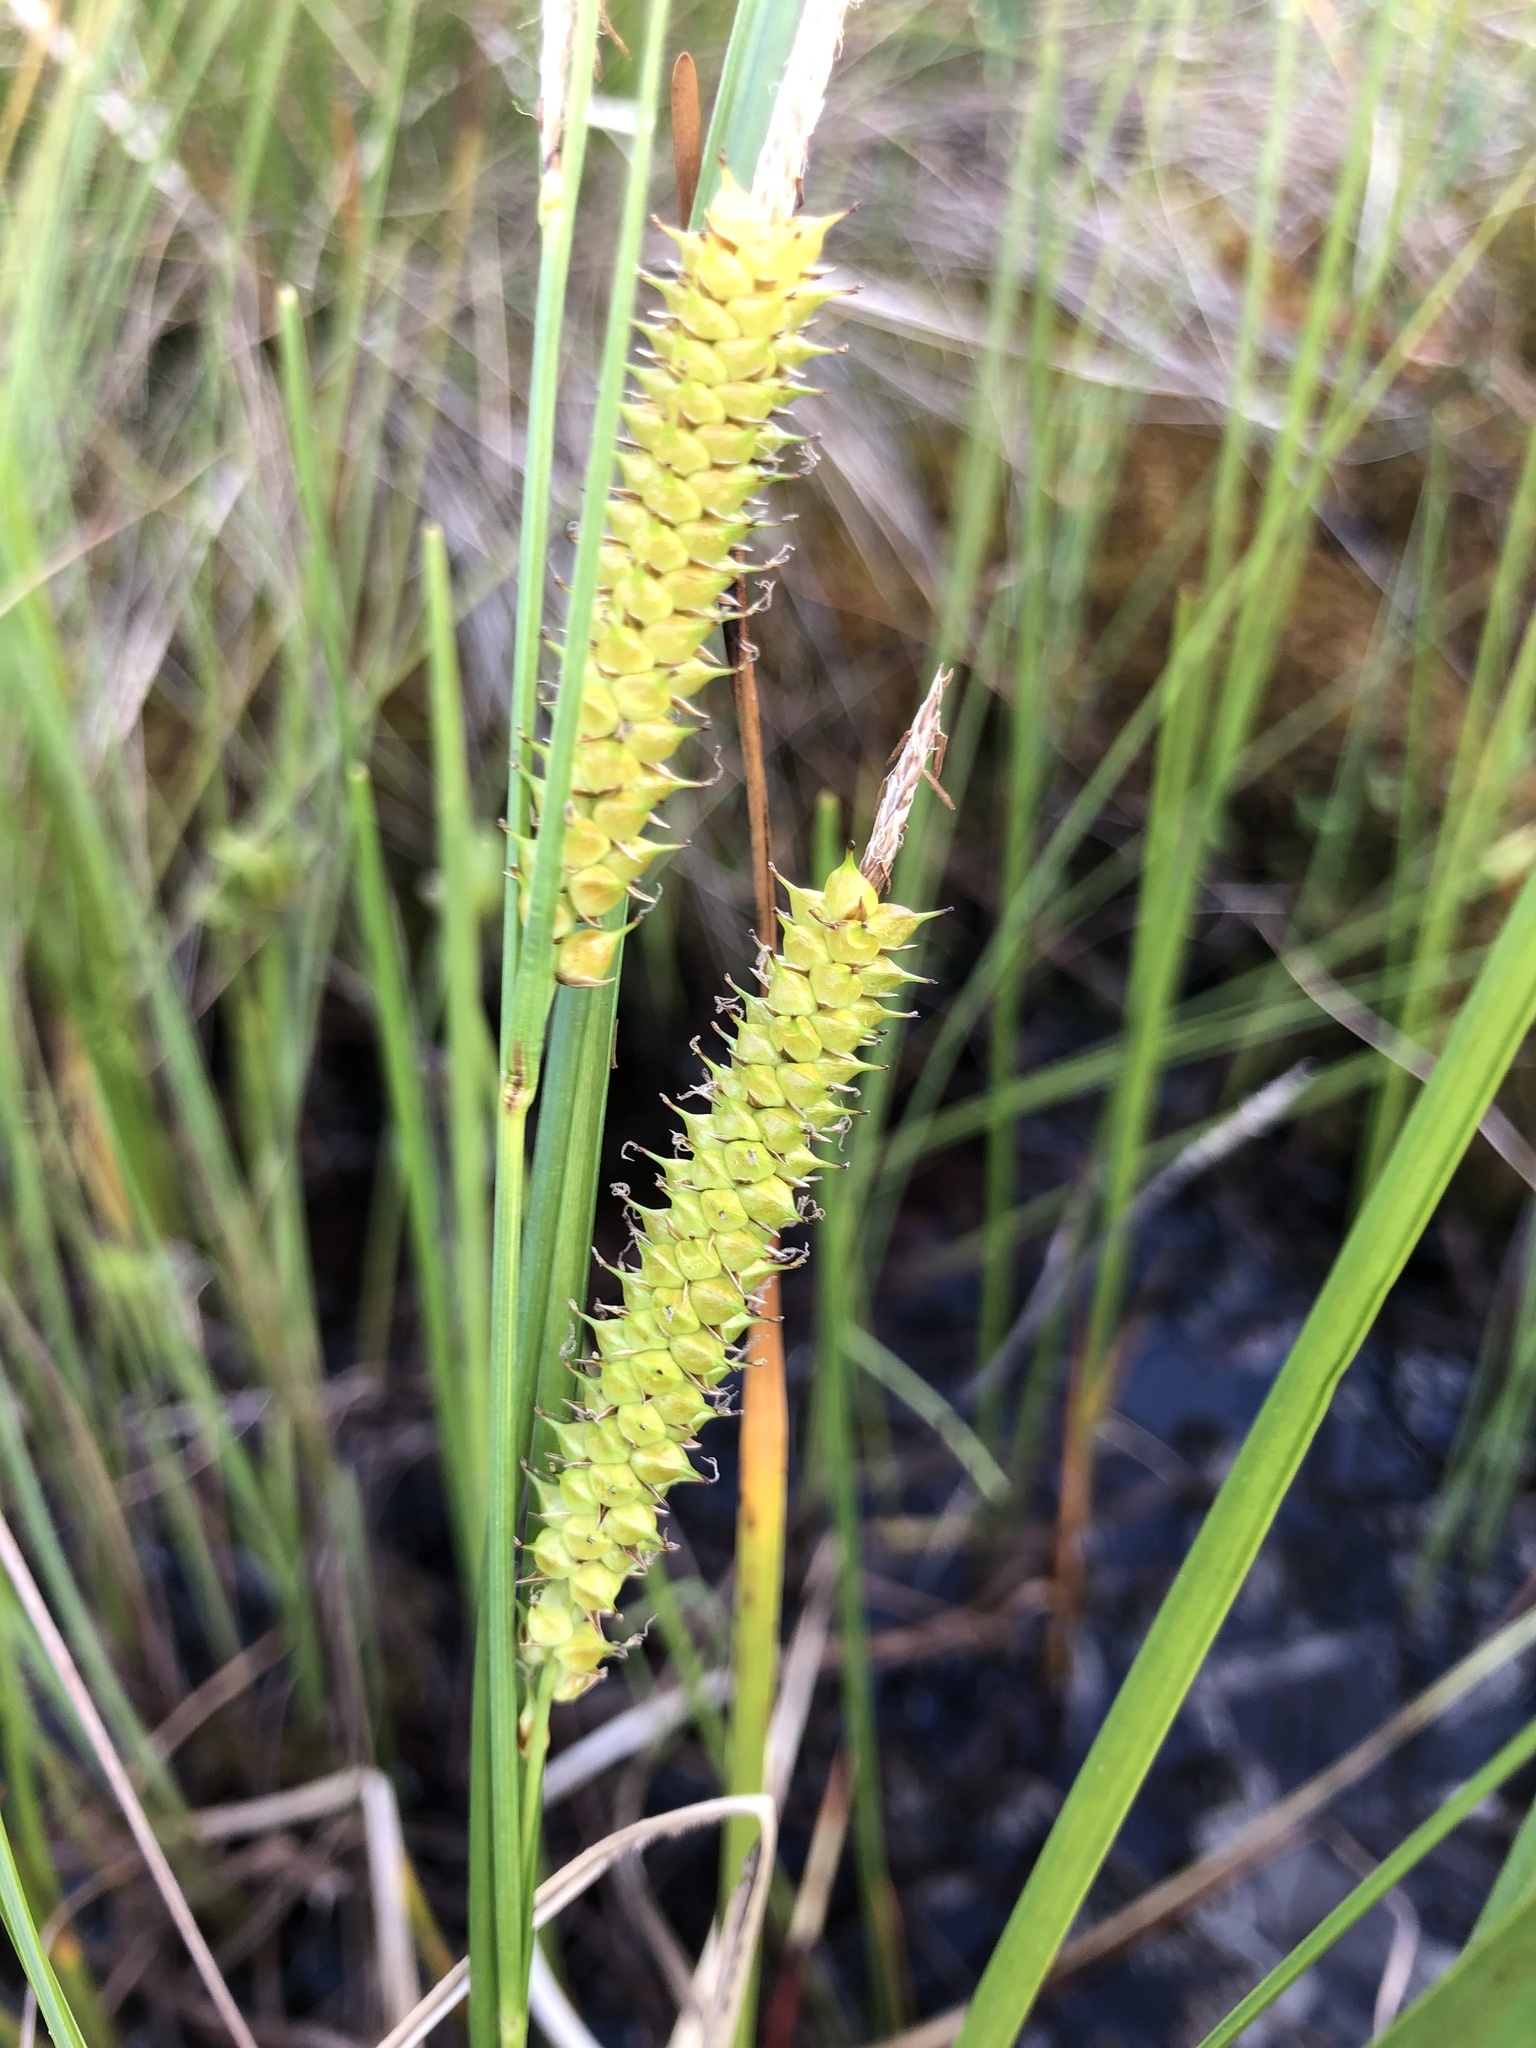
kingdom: Plantae
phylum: Tracheophyta
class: Liliopsida
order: Poales
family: Cyperaceae
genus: Carex
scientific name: Carex rostrata
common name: Bottle sedge
